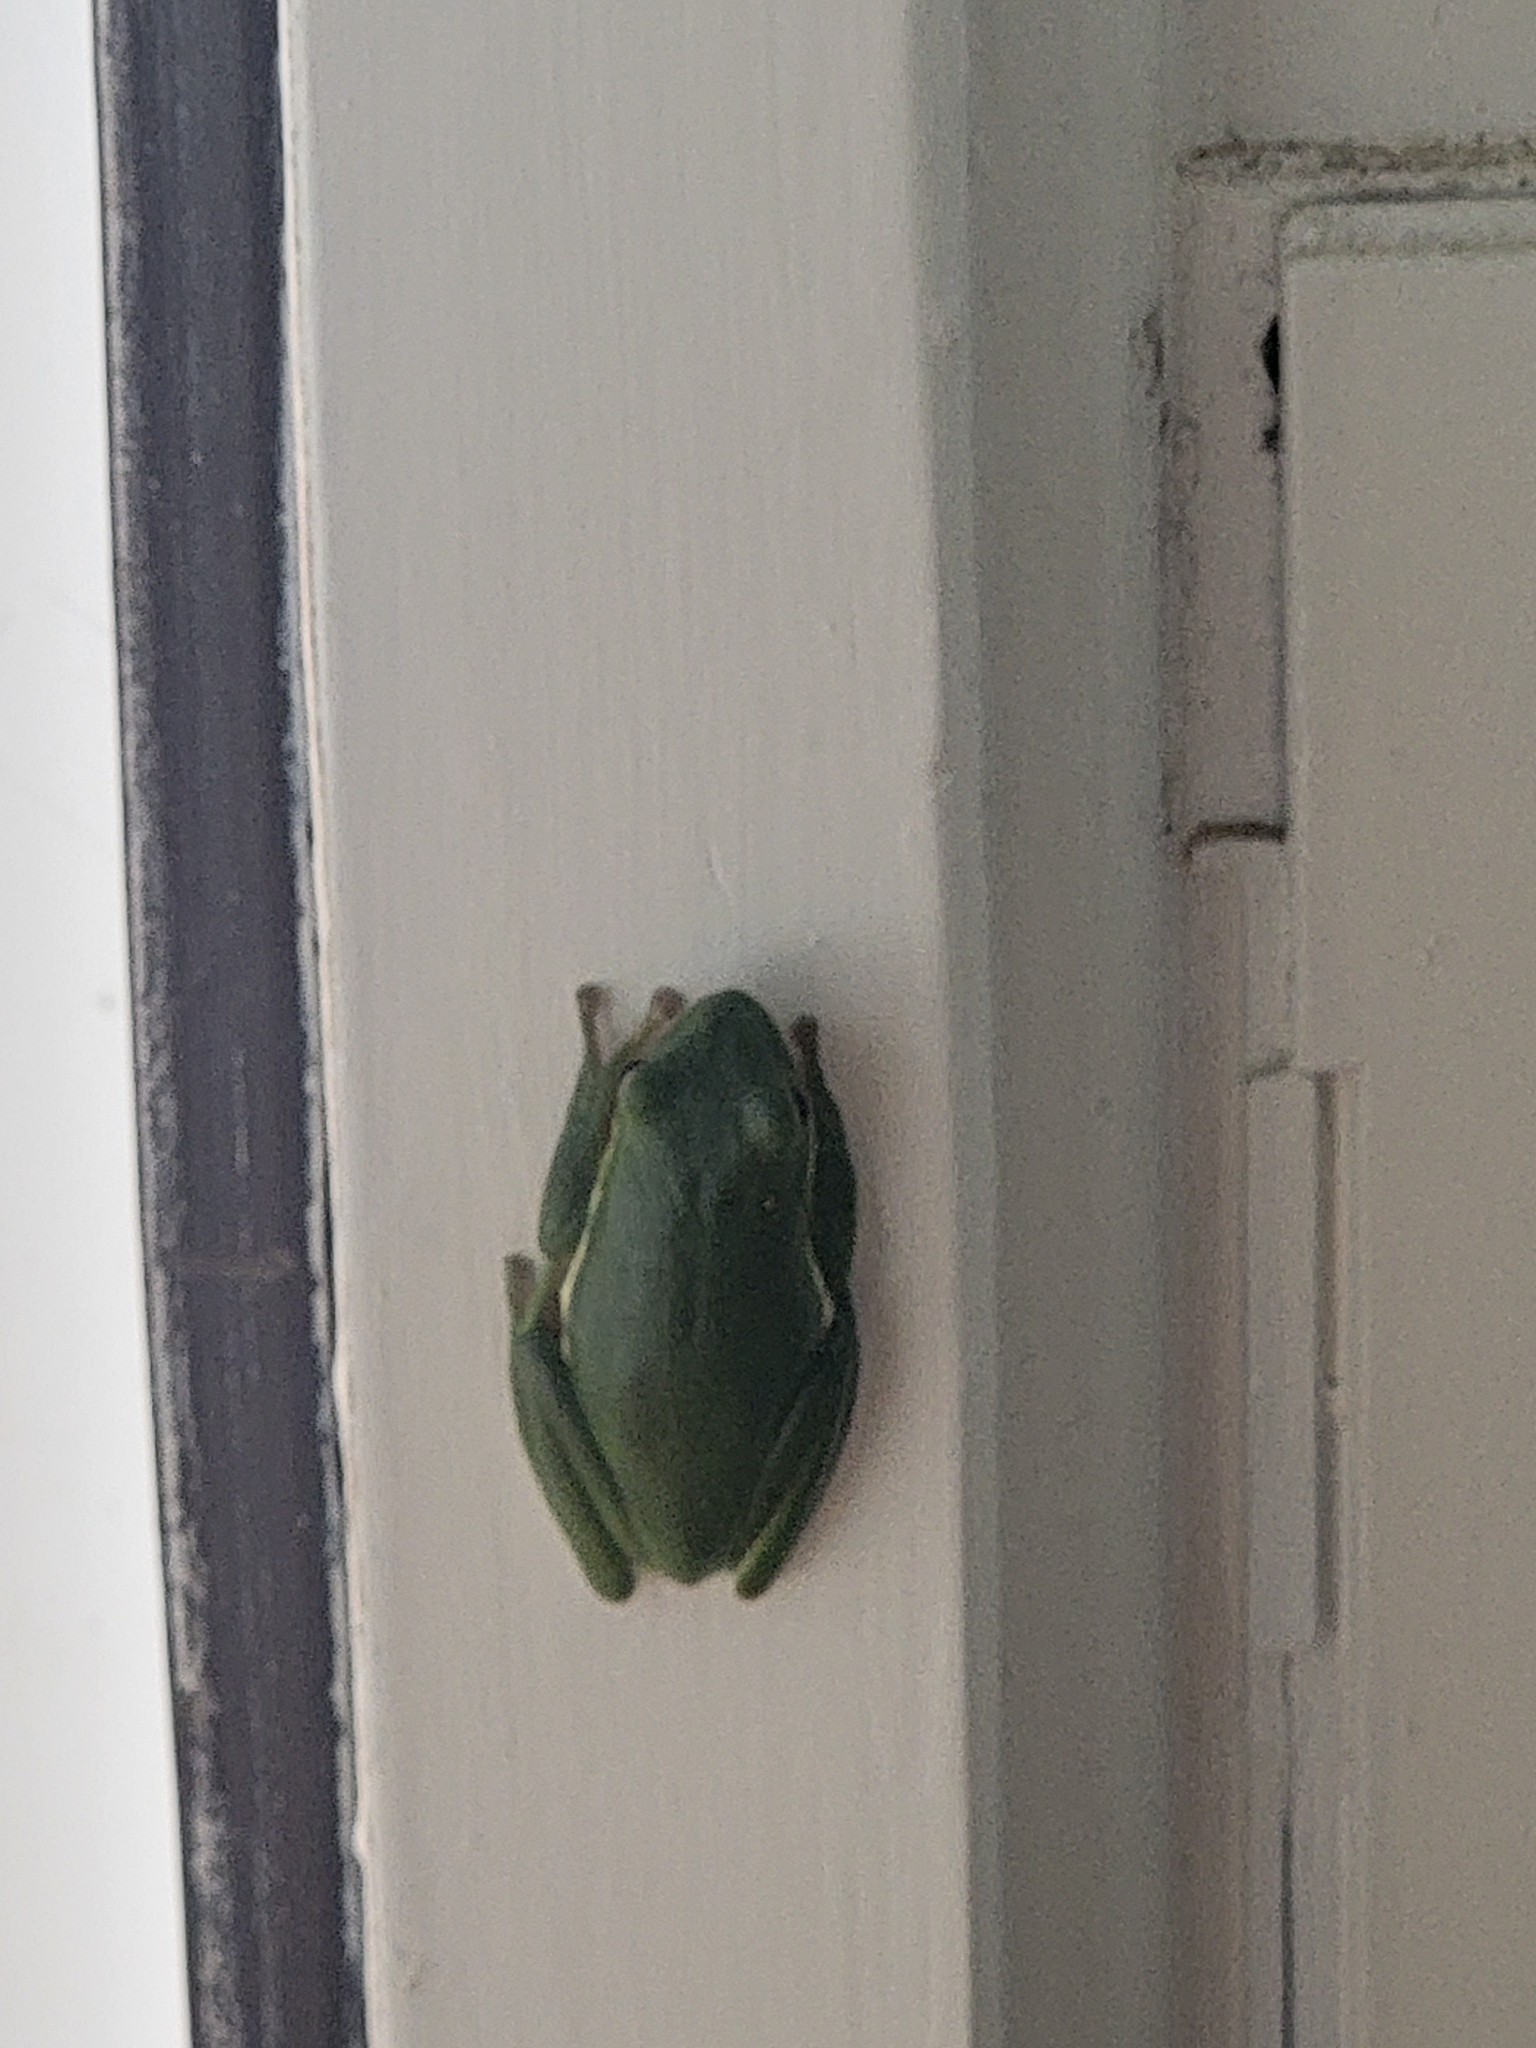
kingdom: Animalia
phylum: Chordata
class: Amphibia
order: Anura
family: Hylidae
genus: Dryophytes
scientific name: Dryophytes cinereus
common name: Green treefrog
